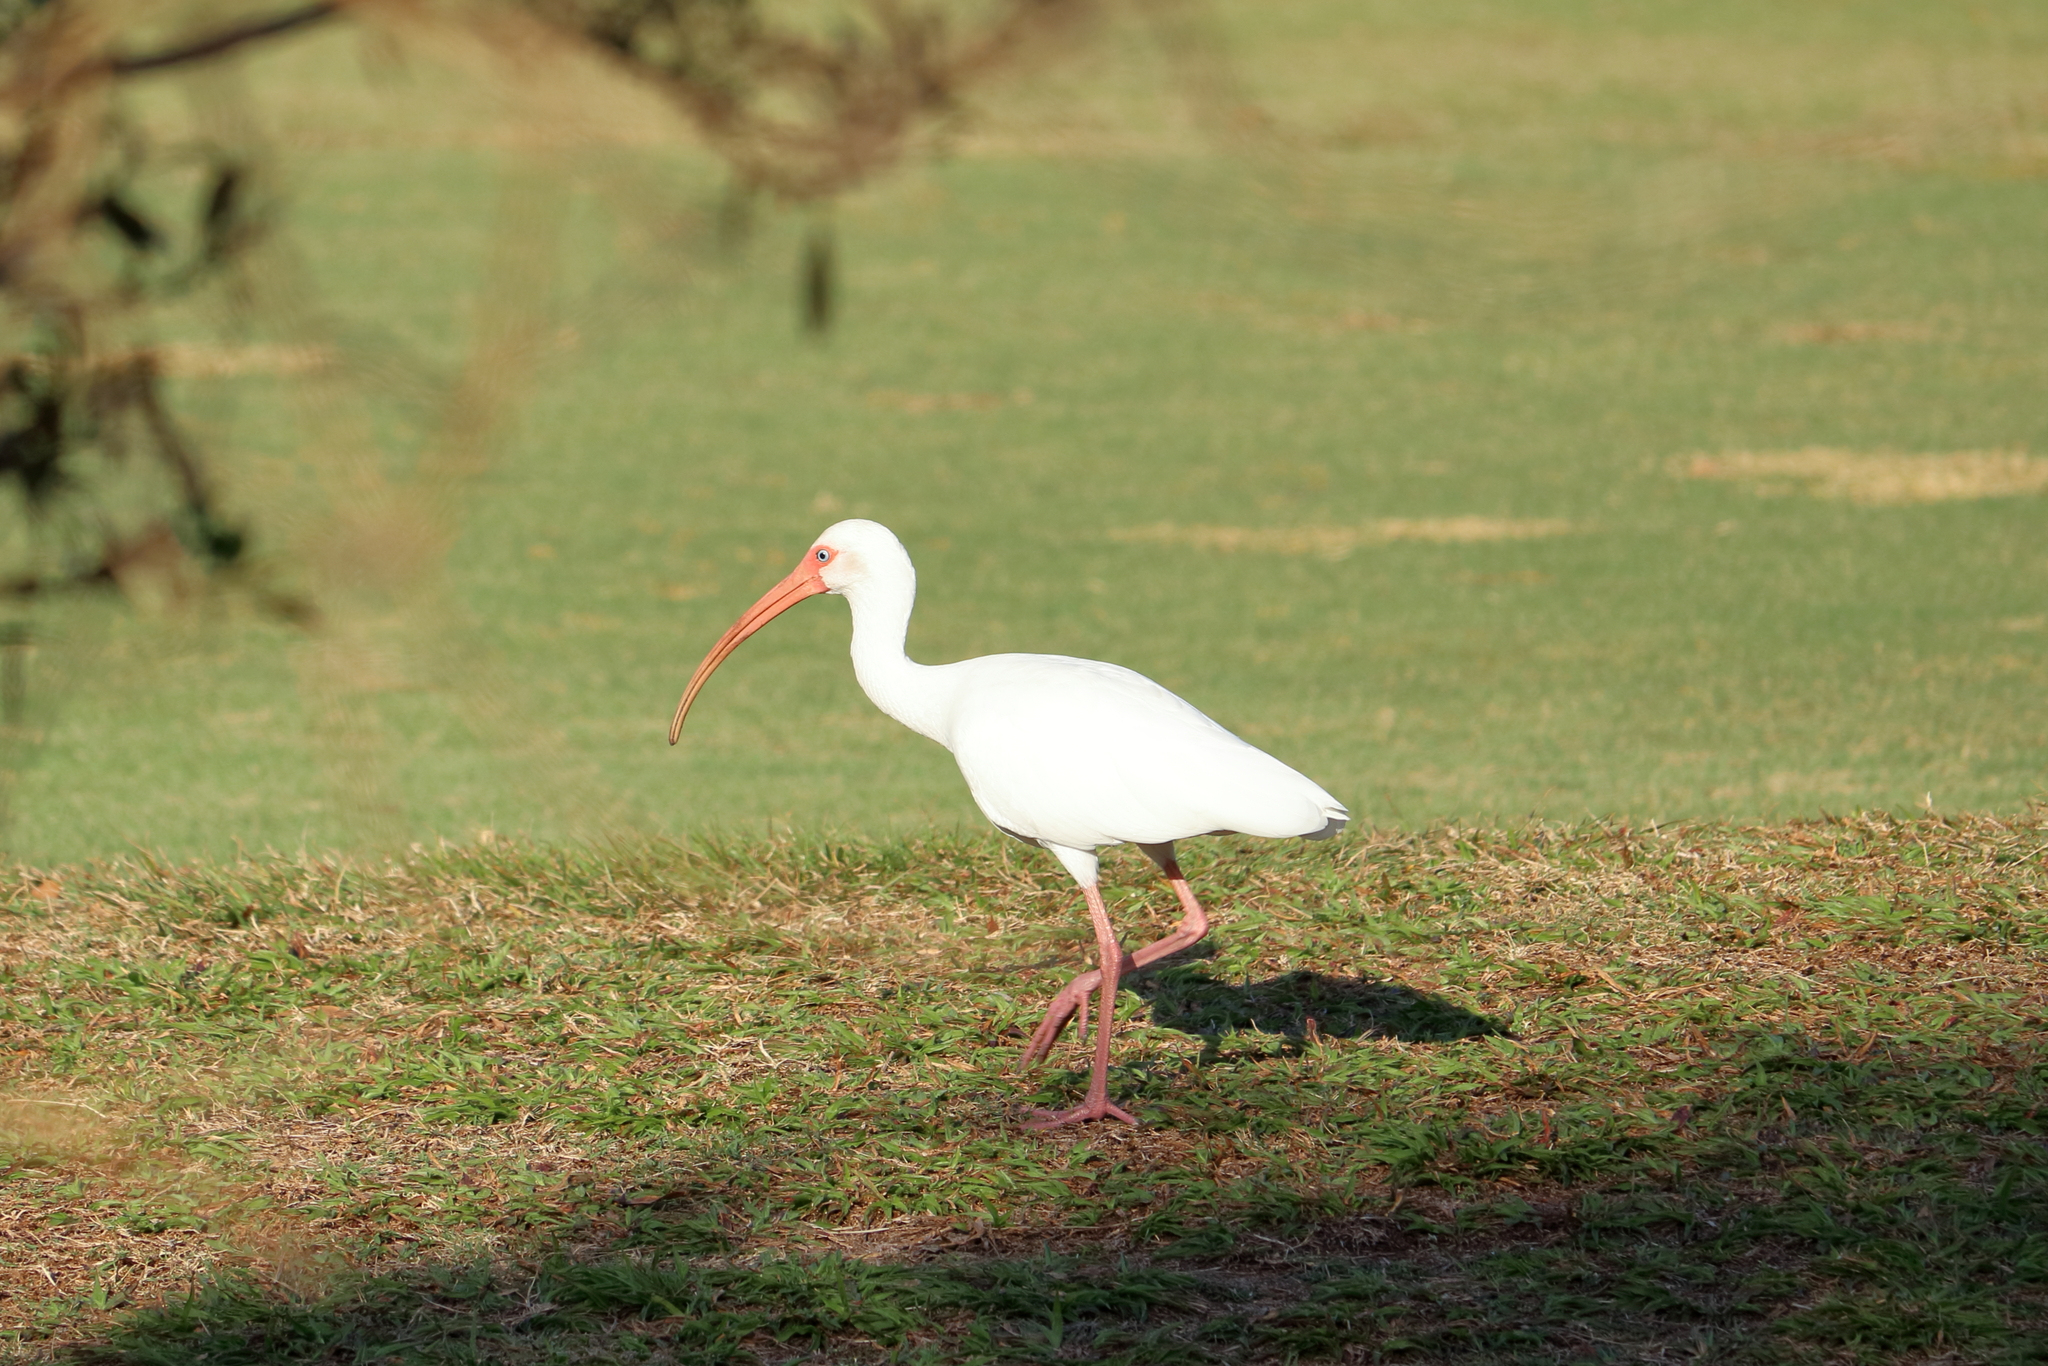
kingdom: Animalia
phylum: Chordata
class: Aves
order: Pelecaniformes
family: Threskiornithidae
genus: Eudocimus
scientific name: Eudocimus albus
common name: White ibis
